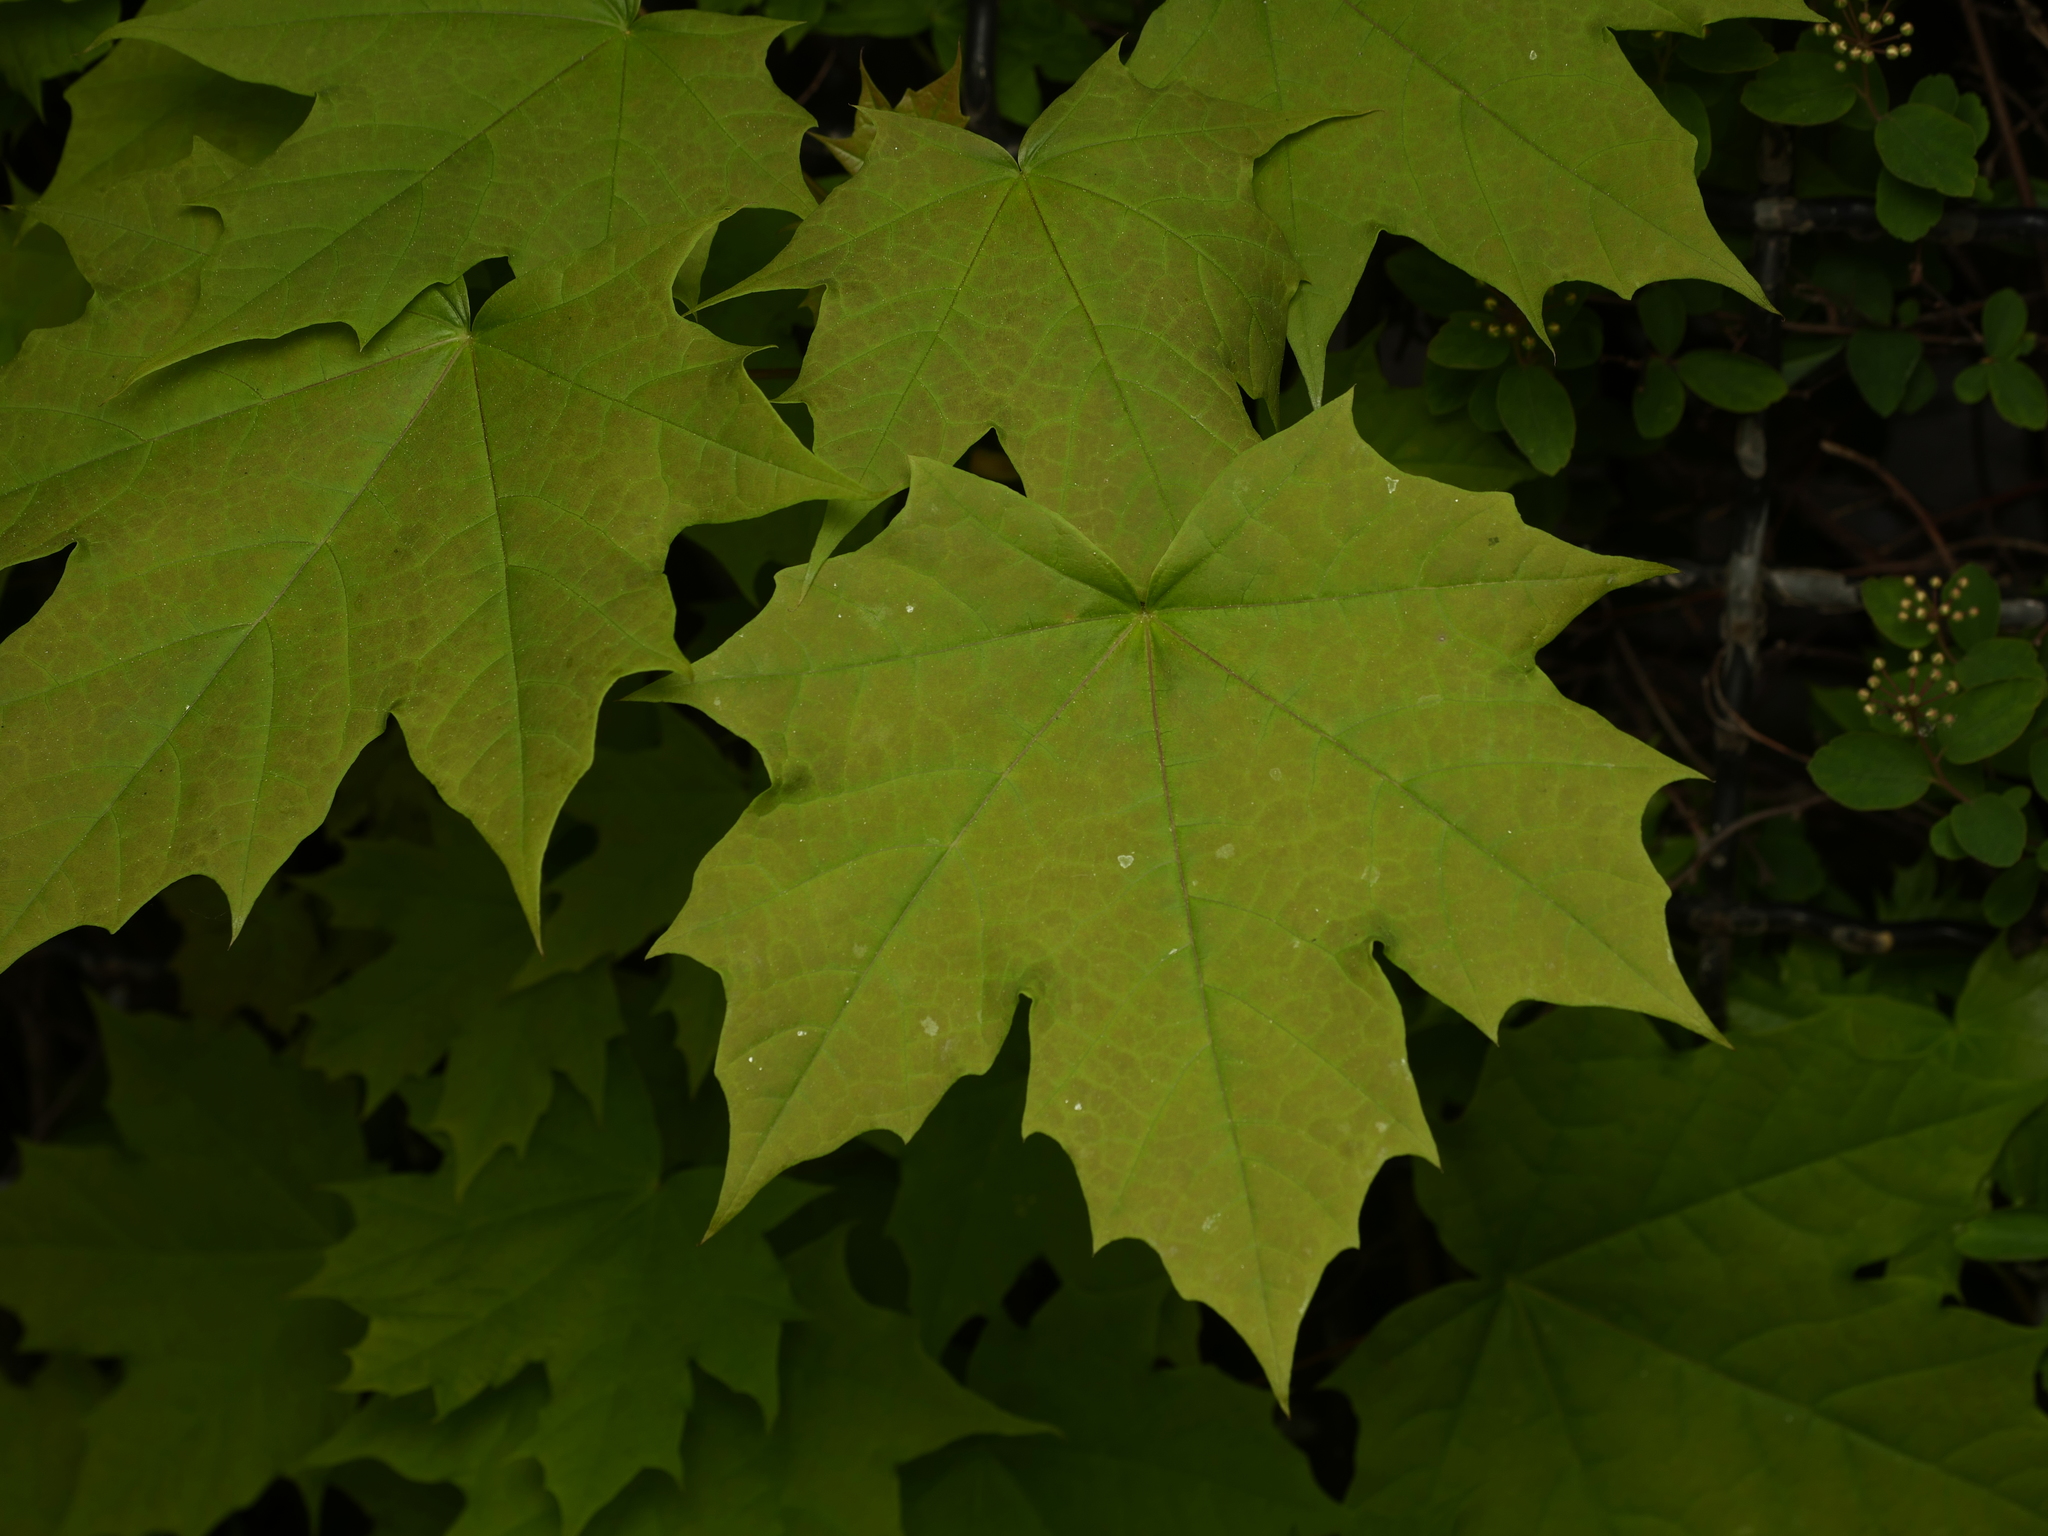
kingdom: Plantae
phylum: Tracheophyta
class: Magnoliopsida
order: Sapindales
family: Sapindaceae
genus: Acer
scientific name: Acer platanoides
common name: Norway maple
